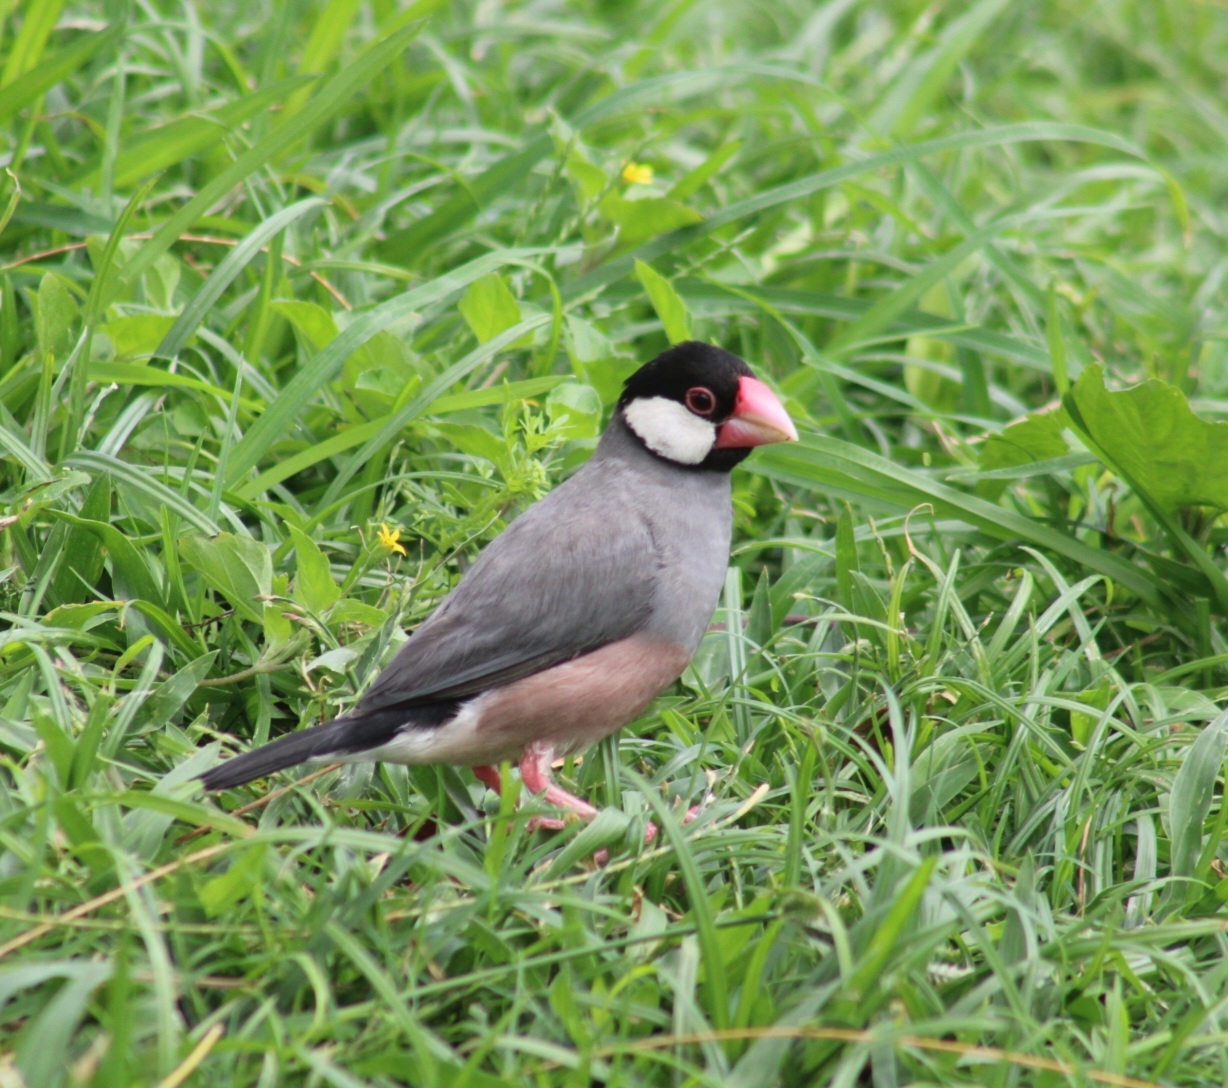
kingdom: Animalia
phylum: Chordata
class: Aves
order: Passeriformes
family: Estrildidae
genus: Lonchura
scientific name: Lonchura oryzivora
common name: Java sparrow
